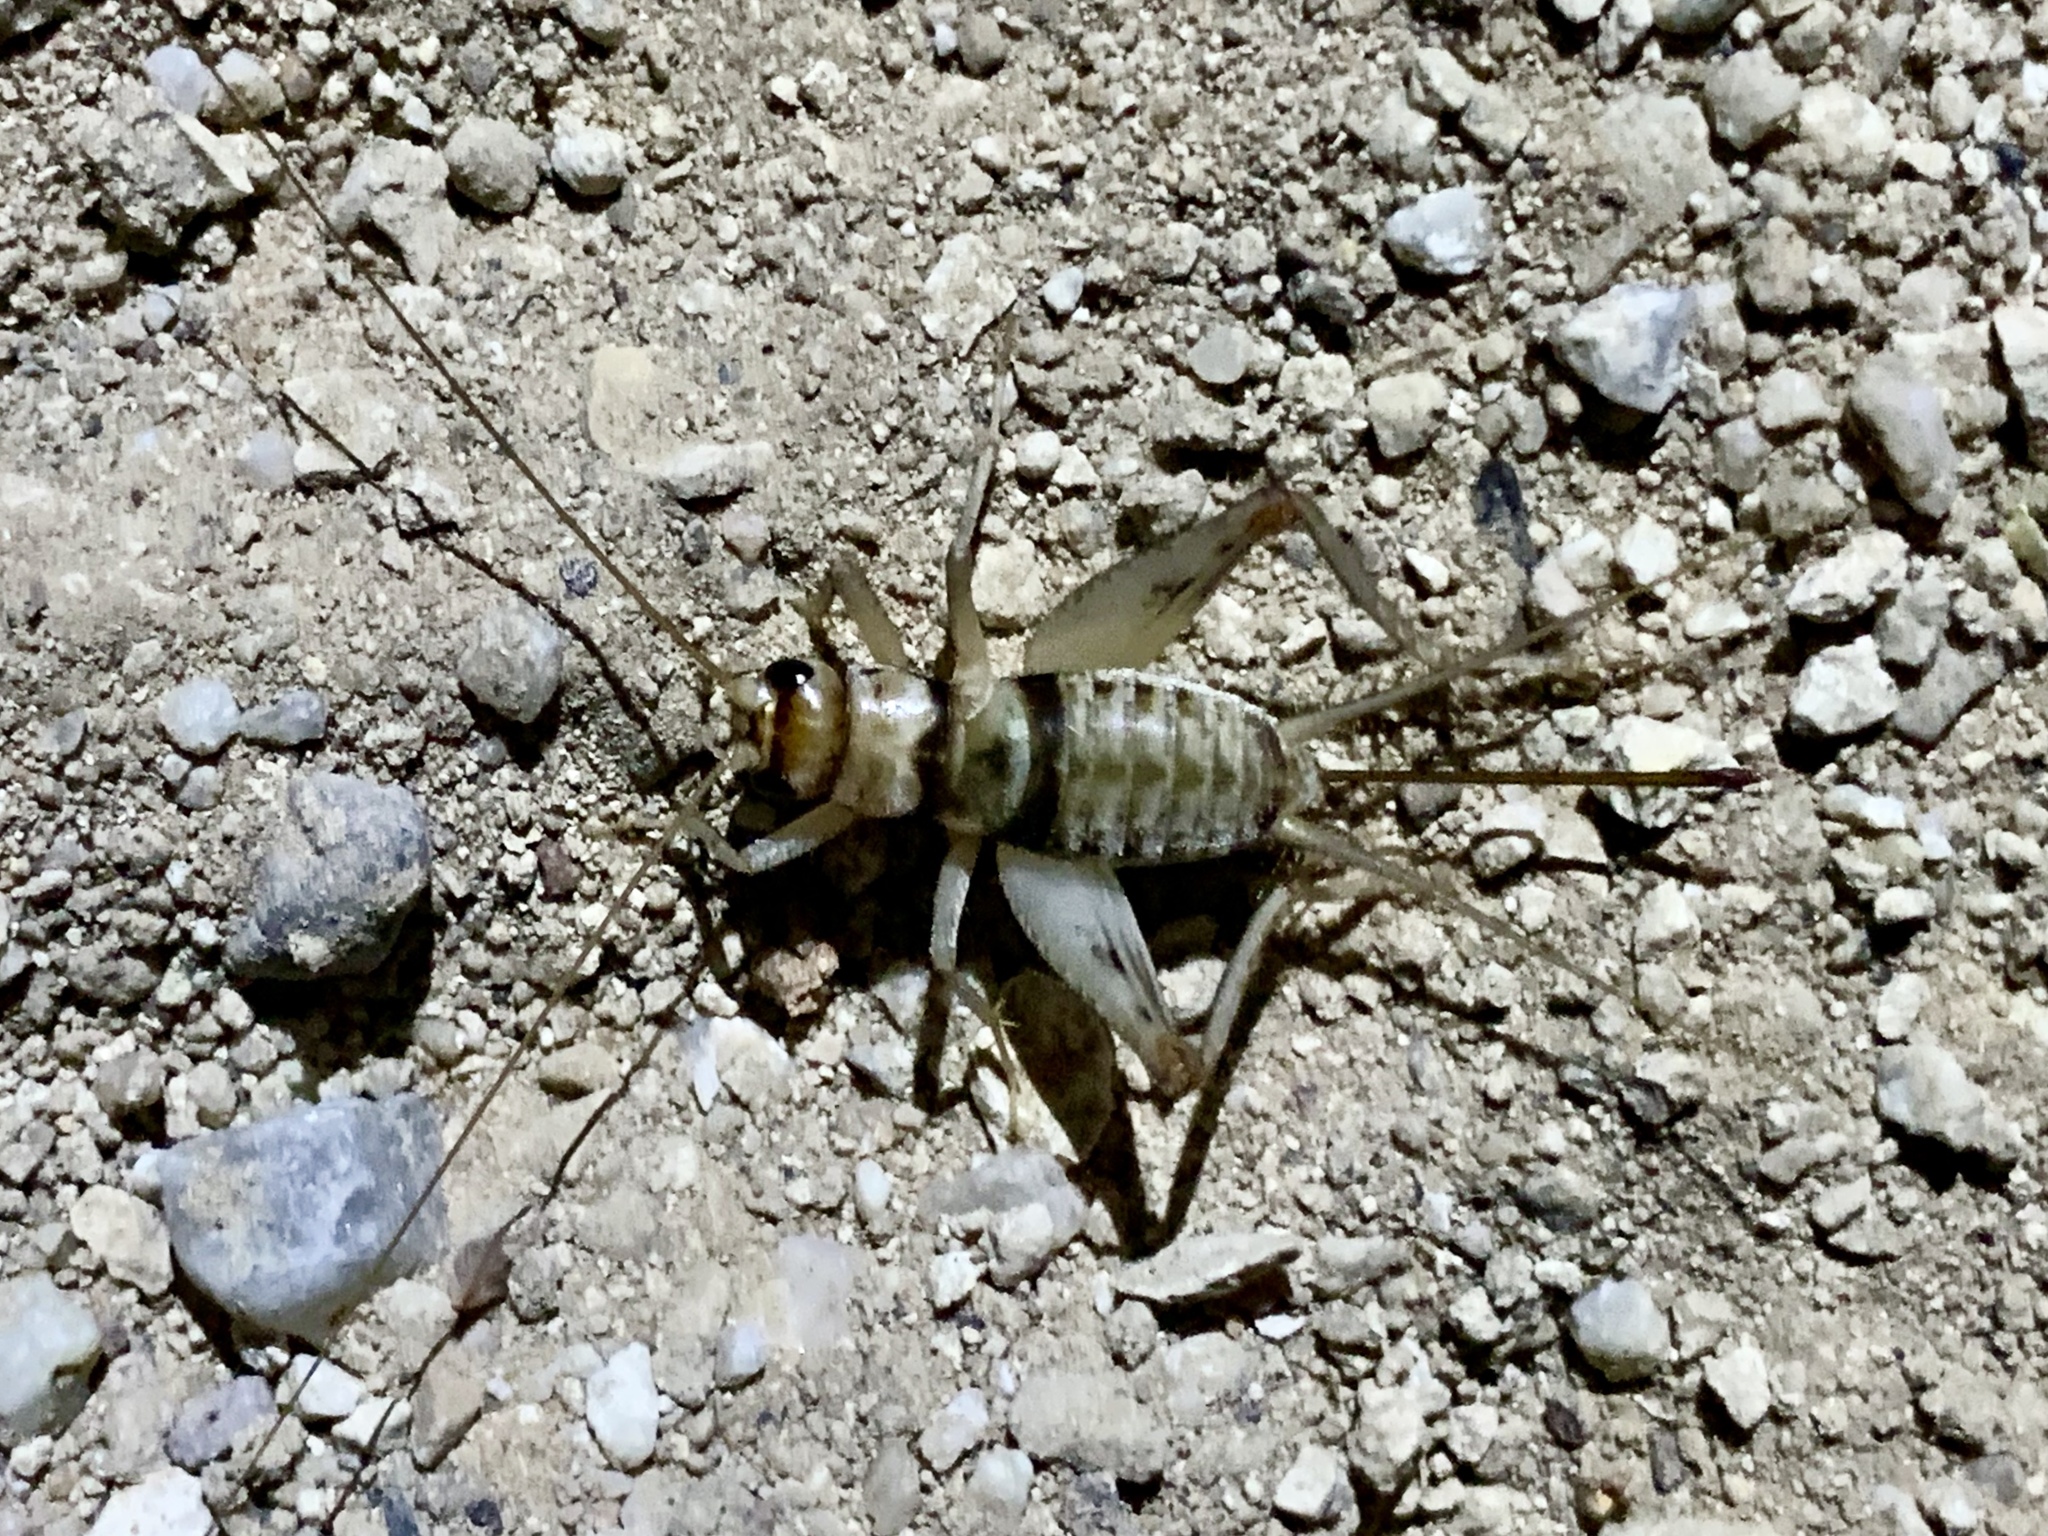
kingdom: Animalia
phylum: Arthropoda
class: Insecta
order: Orthoptera
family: Gryllidae
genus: Gryllodes
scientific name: Gryllodes sigillatus
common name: Tropical house cricket
